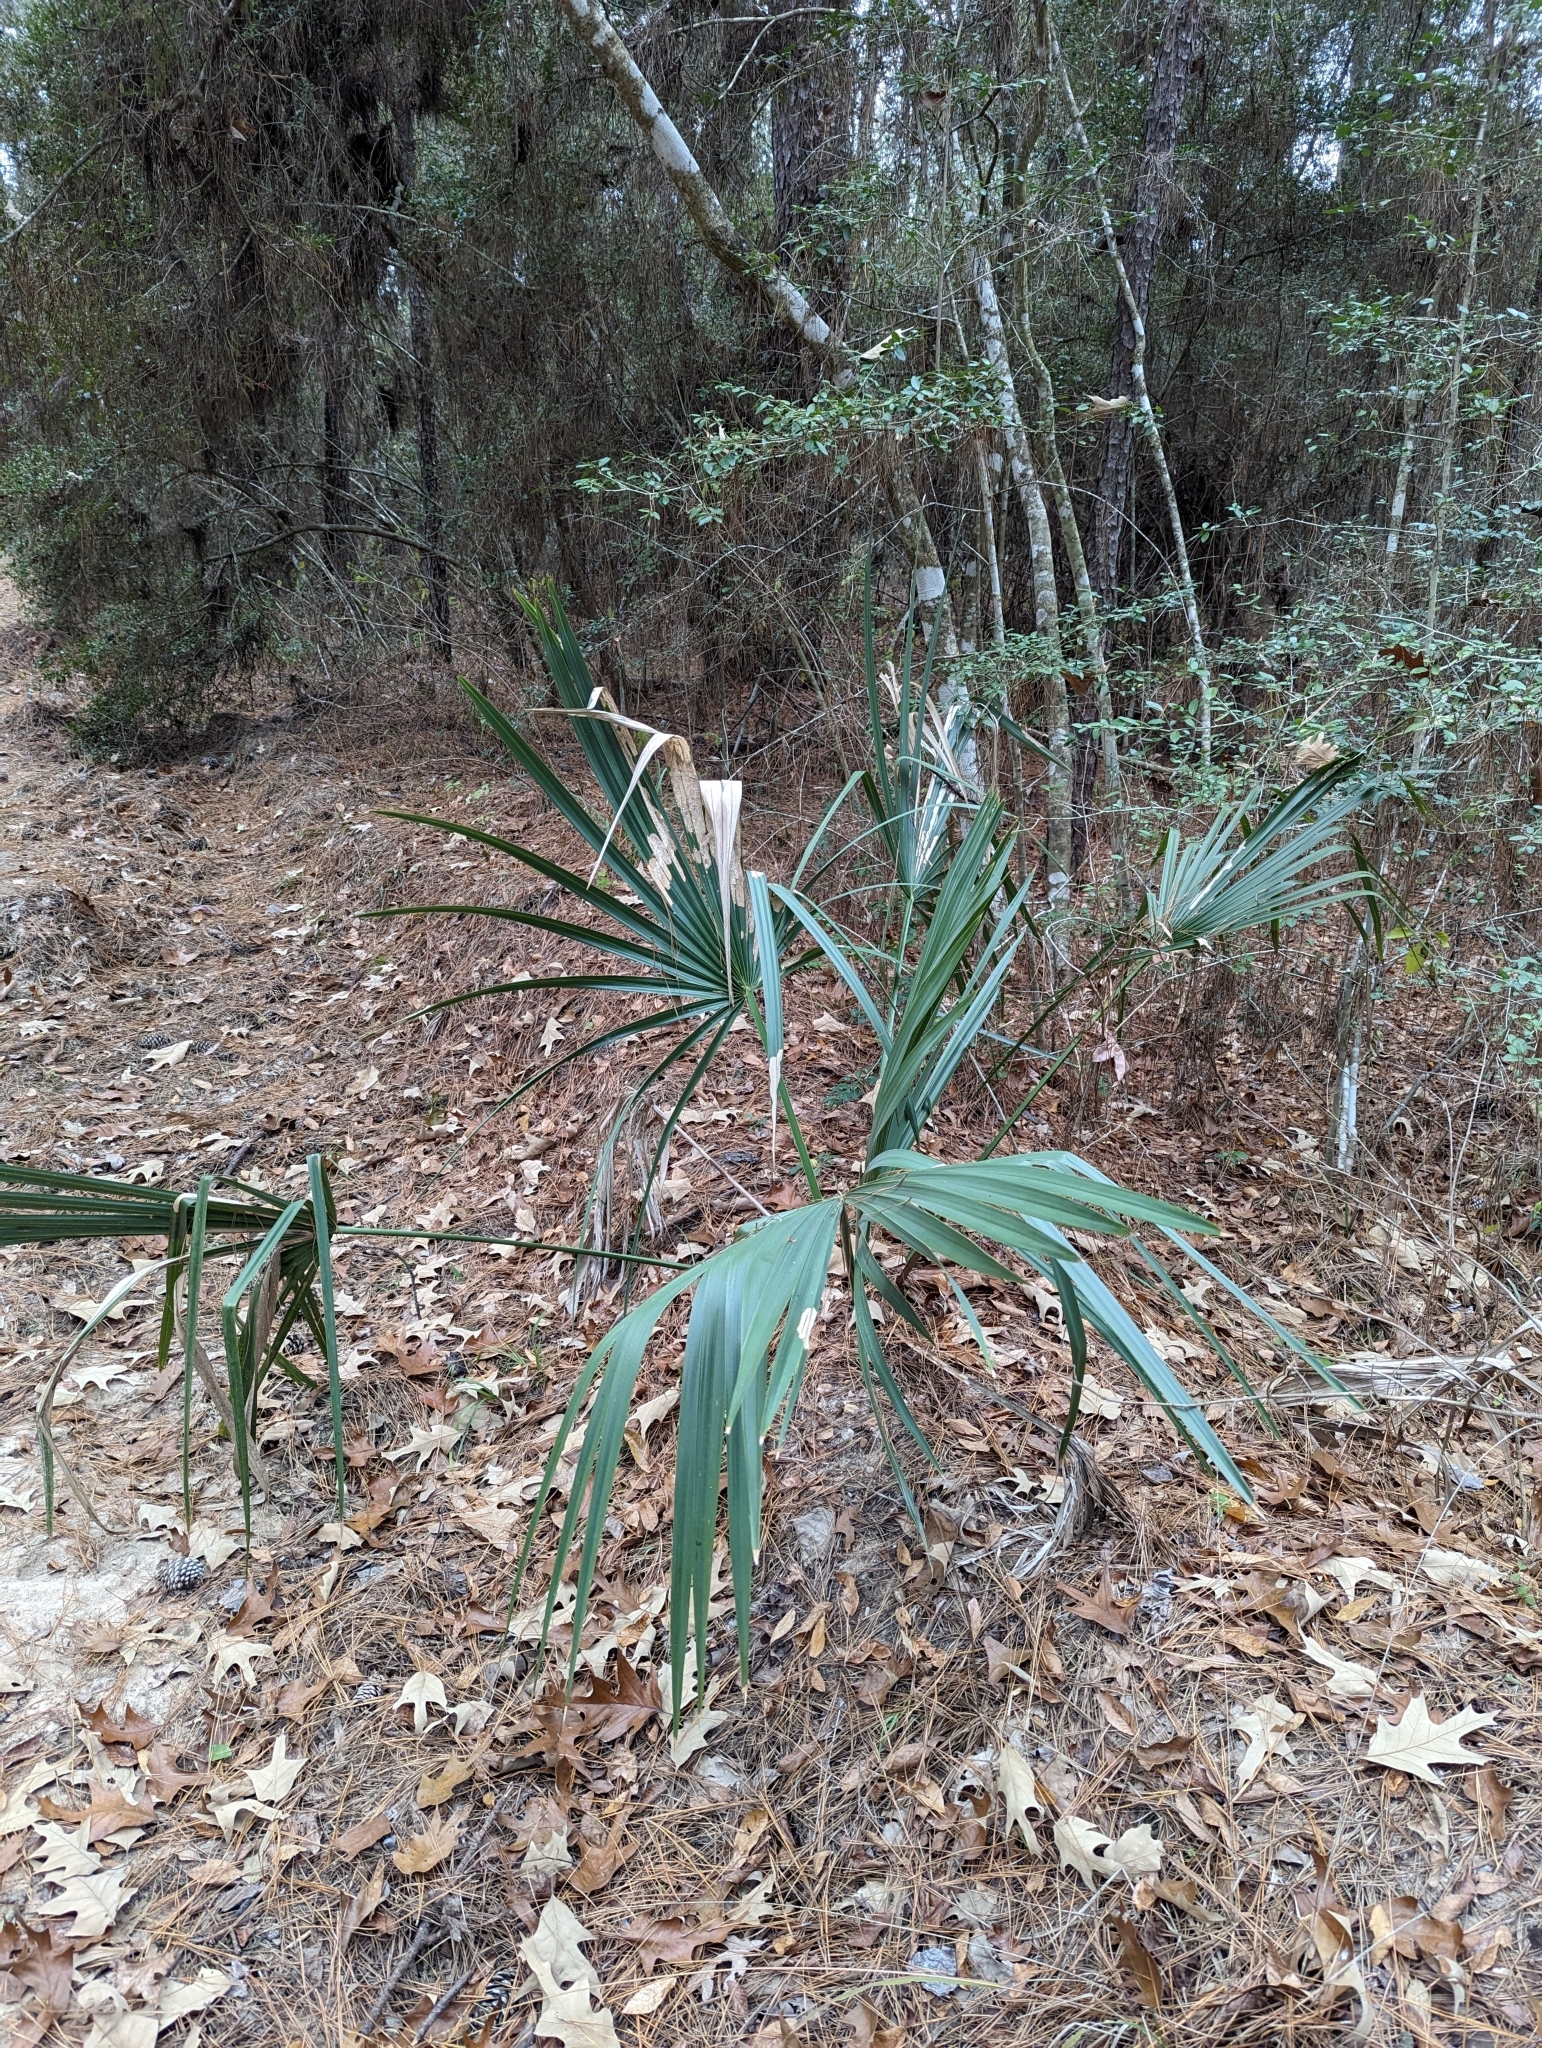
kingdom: Plantae
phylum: Tracheophyta
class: Liliopsida
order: Arecales
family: Arecaceae
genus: Sabal
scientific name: Sabal minor
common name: Dwarf palmetto
